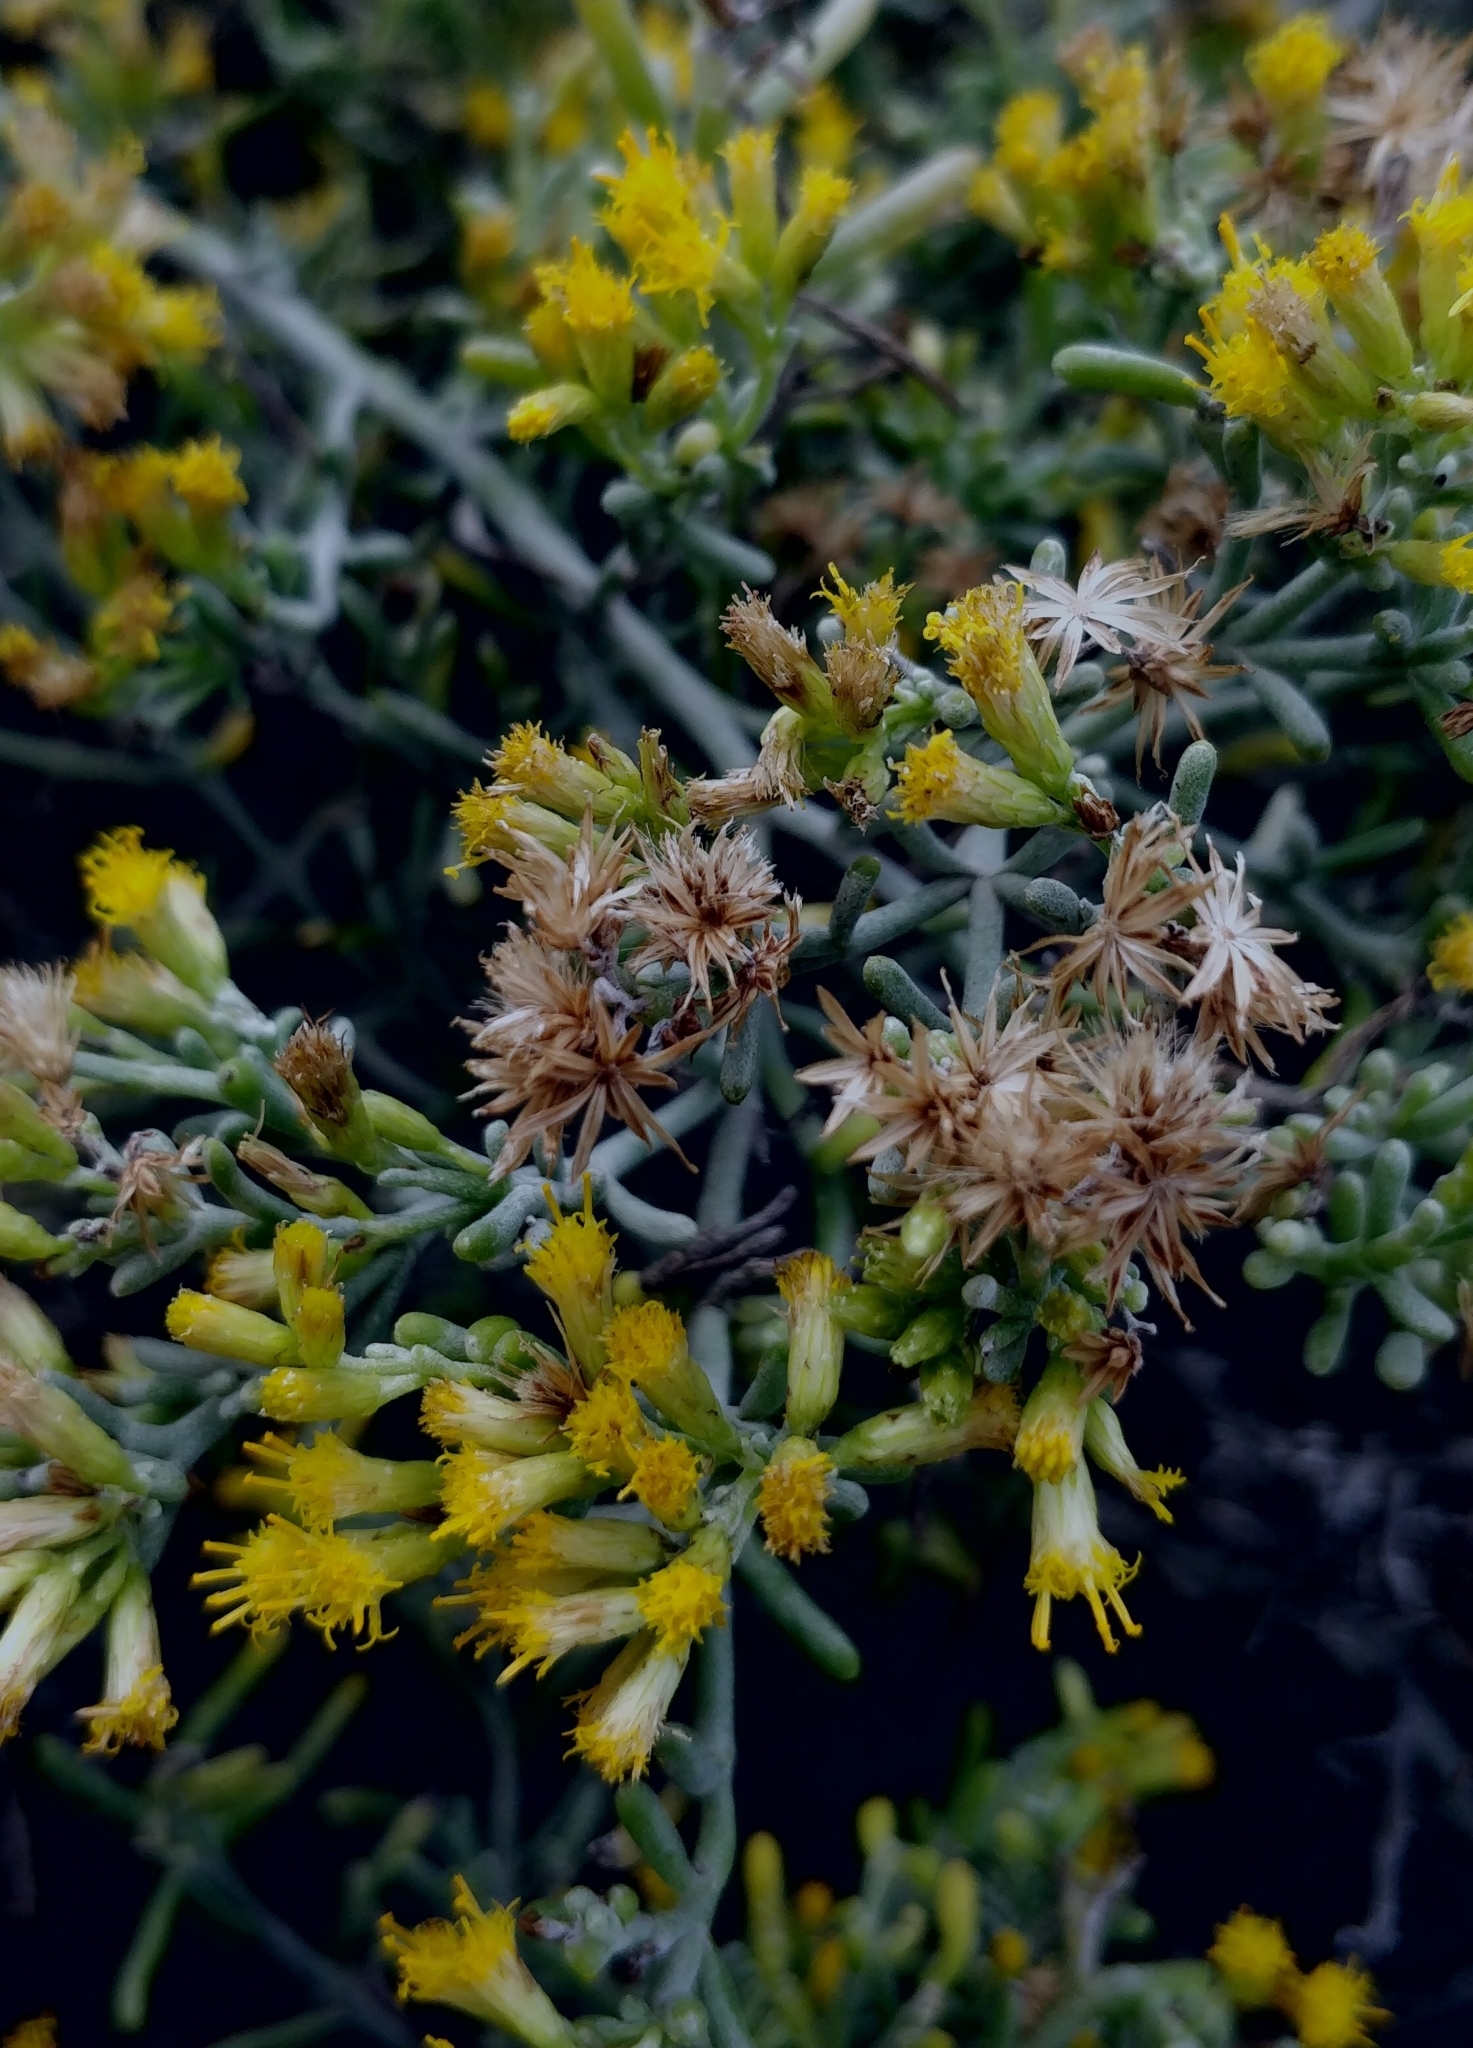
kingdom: Plantae
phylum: Tracheophyta
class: Magnoliopsida
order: Asterales
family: Asteraceae
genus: Schizogyne
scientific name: Schizogyne sericea
